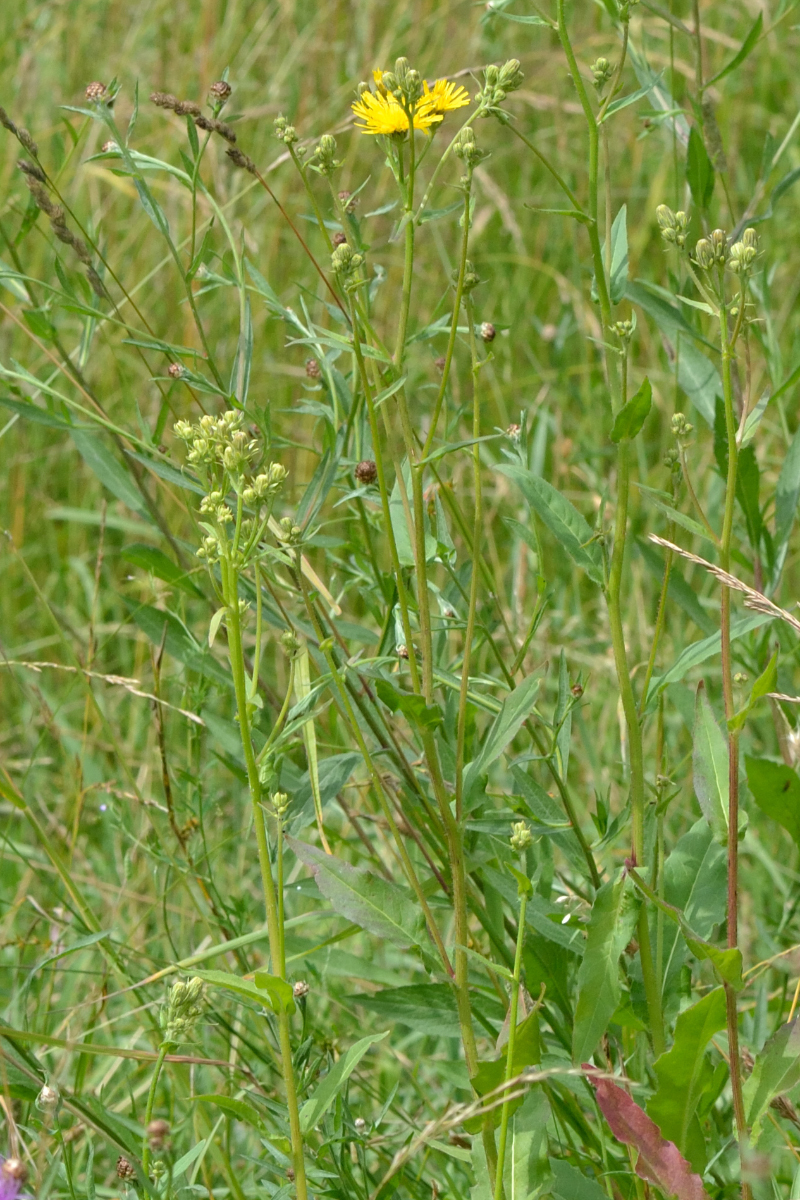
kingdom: Plantae
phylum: Tracheophyta
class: Magnoliopsida
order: Asterales
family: Asteraceae
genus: Picris
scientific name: Picris hieracioides
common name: Hawkweed oxtongue
